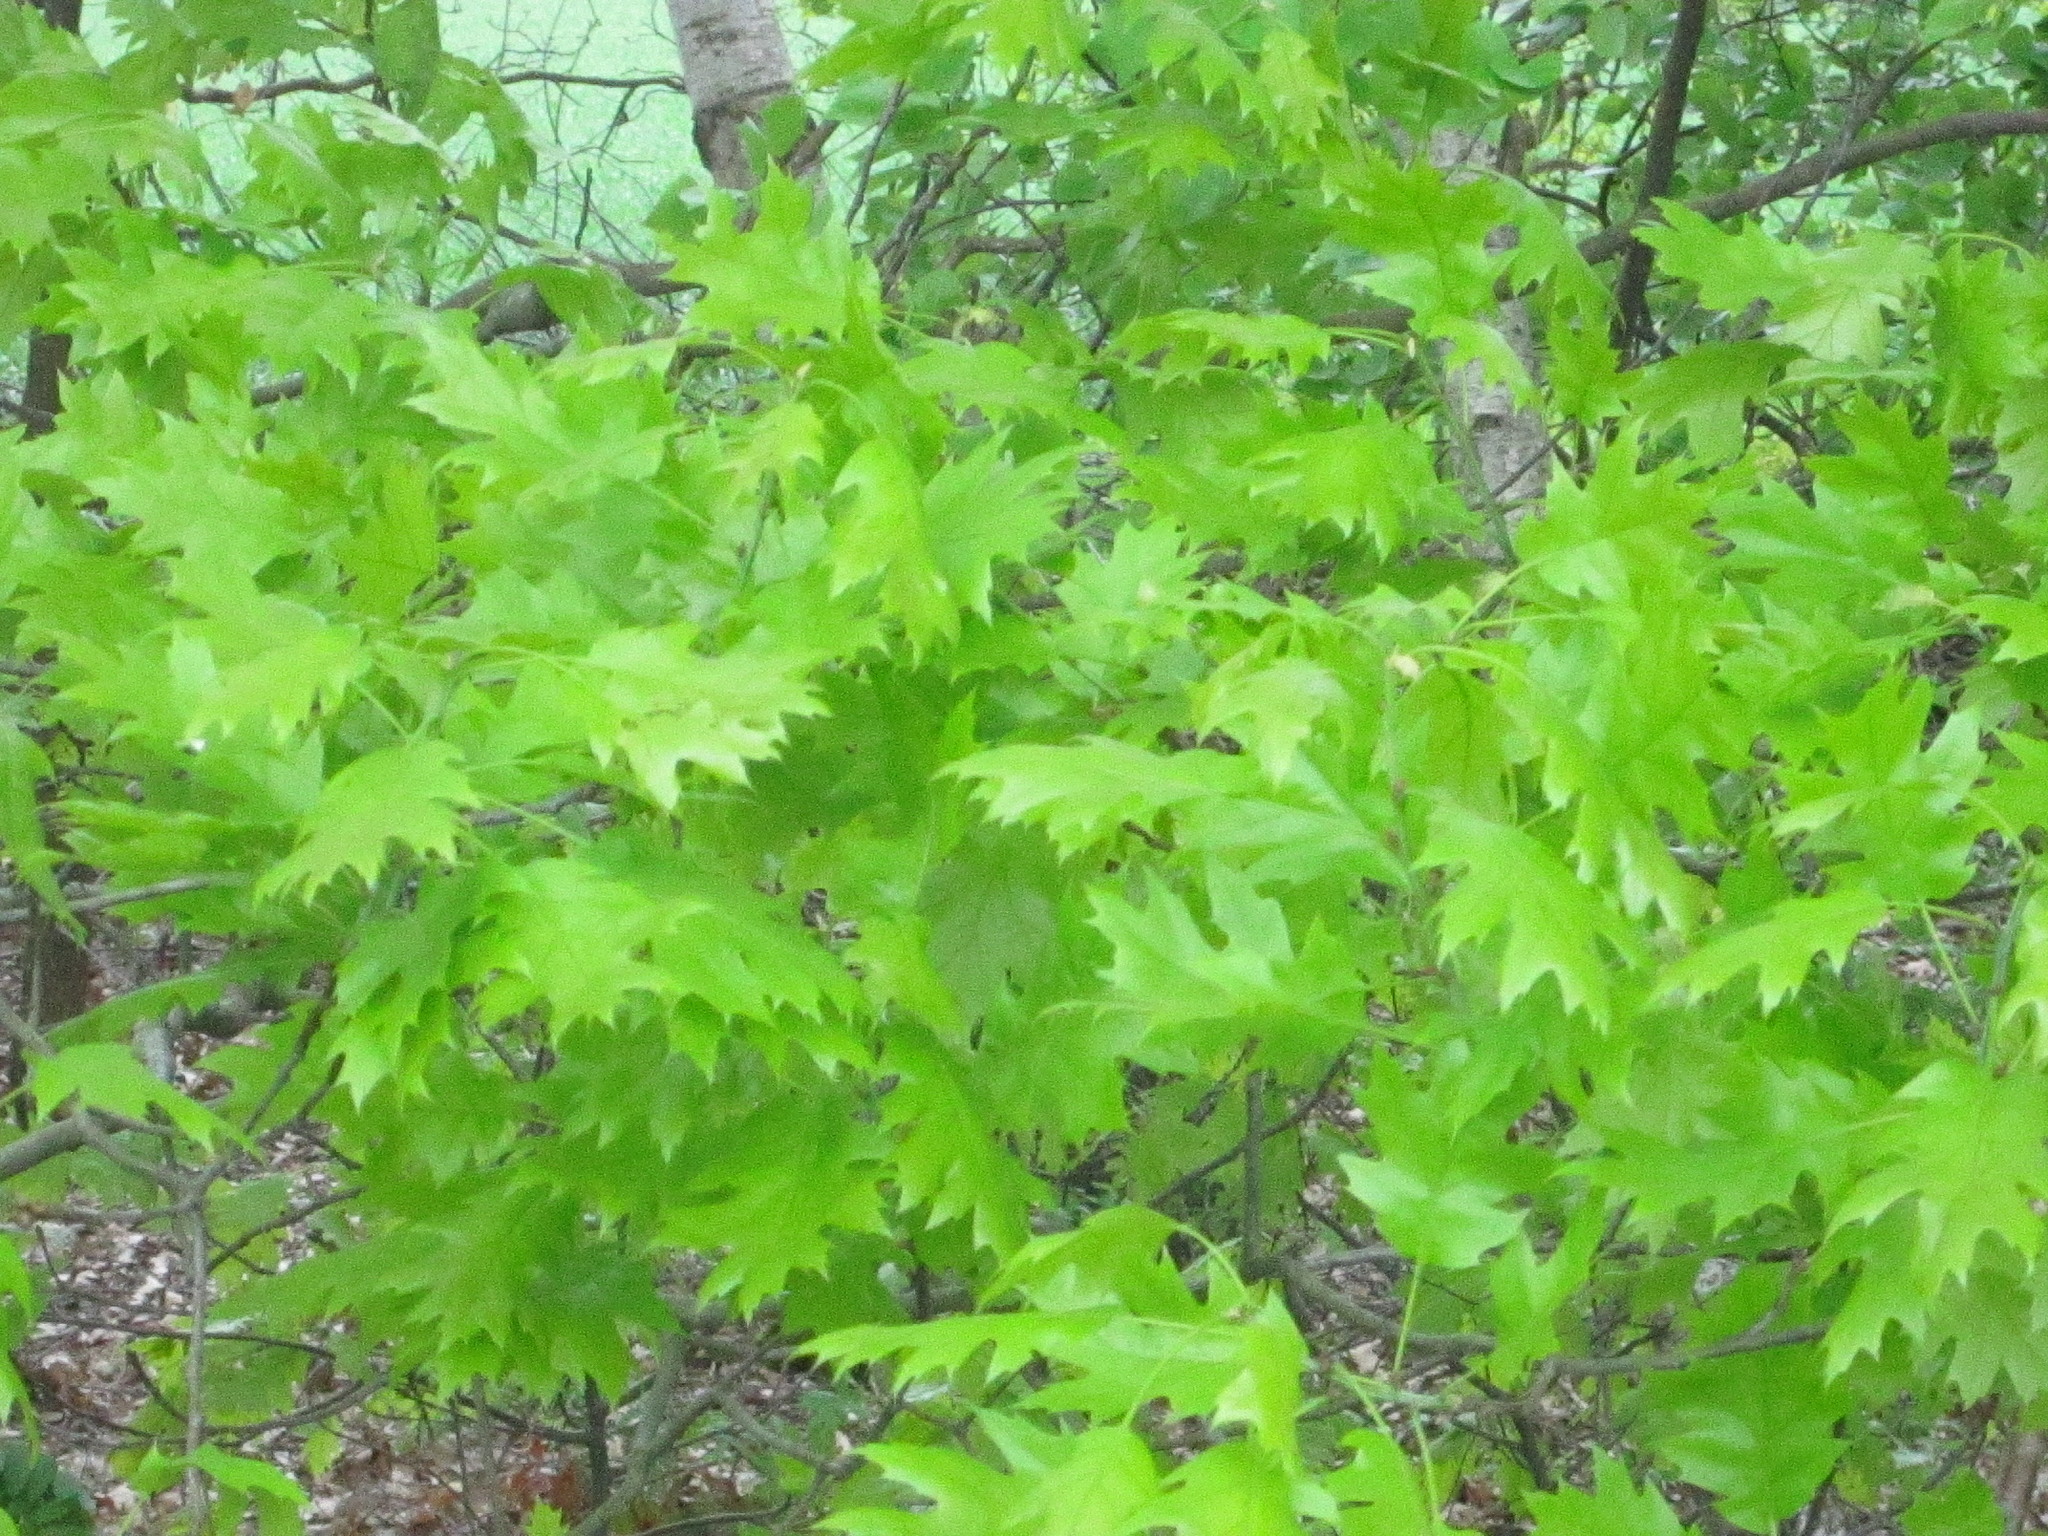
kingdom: Plantae
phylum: Tracheophyta
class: Magnoliopsida
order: Fagales
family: Fagaceae
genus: Quercus
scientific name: Quercus rubra
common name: Red oak
